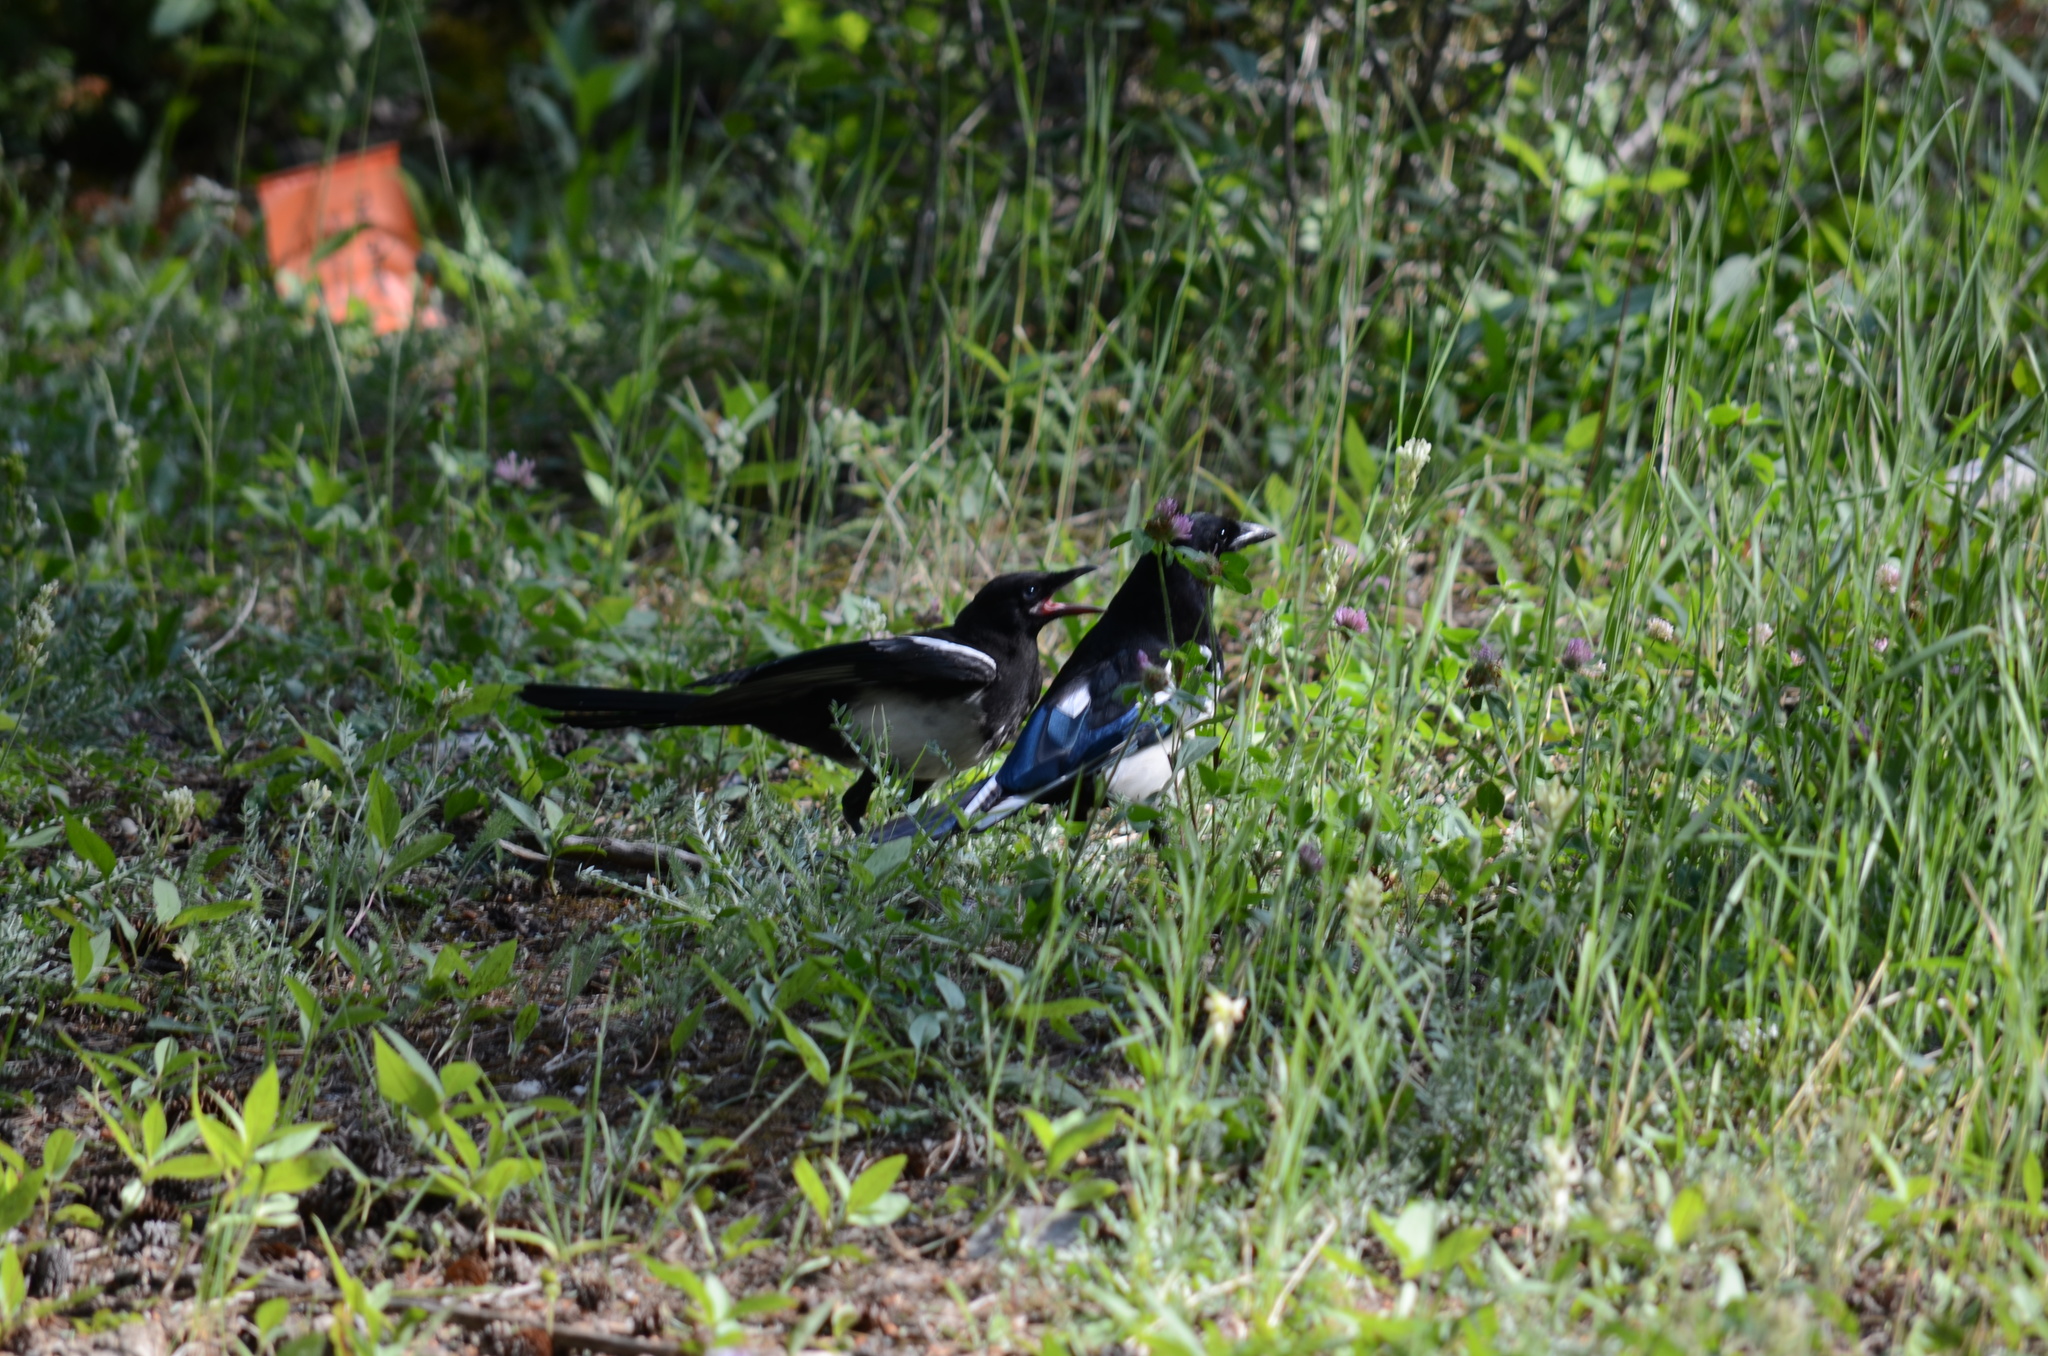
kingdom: Animalia
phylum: Chordata
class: Aves
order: Passeriformes
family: Corvidae
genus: Pica
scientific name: Pica hudsonia
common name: Black-billed magpie
